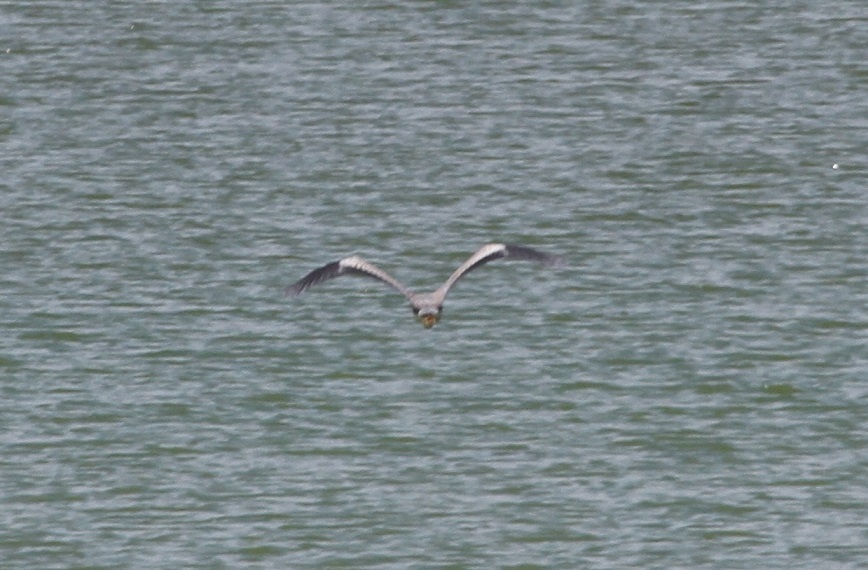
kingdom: Animalia
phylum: Chordata
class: Aves
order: Pelecaniformes
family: Ardeidae
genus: Ardea
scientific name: Ardea cinerea
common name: Grey heron
